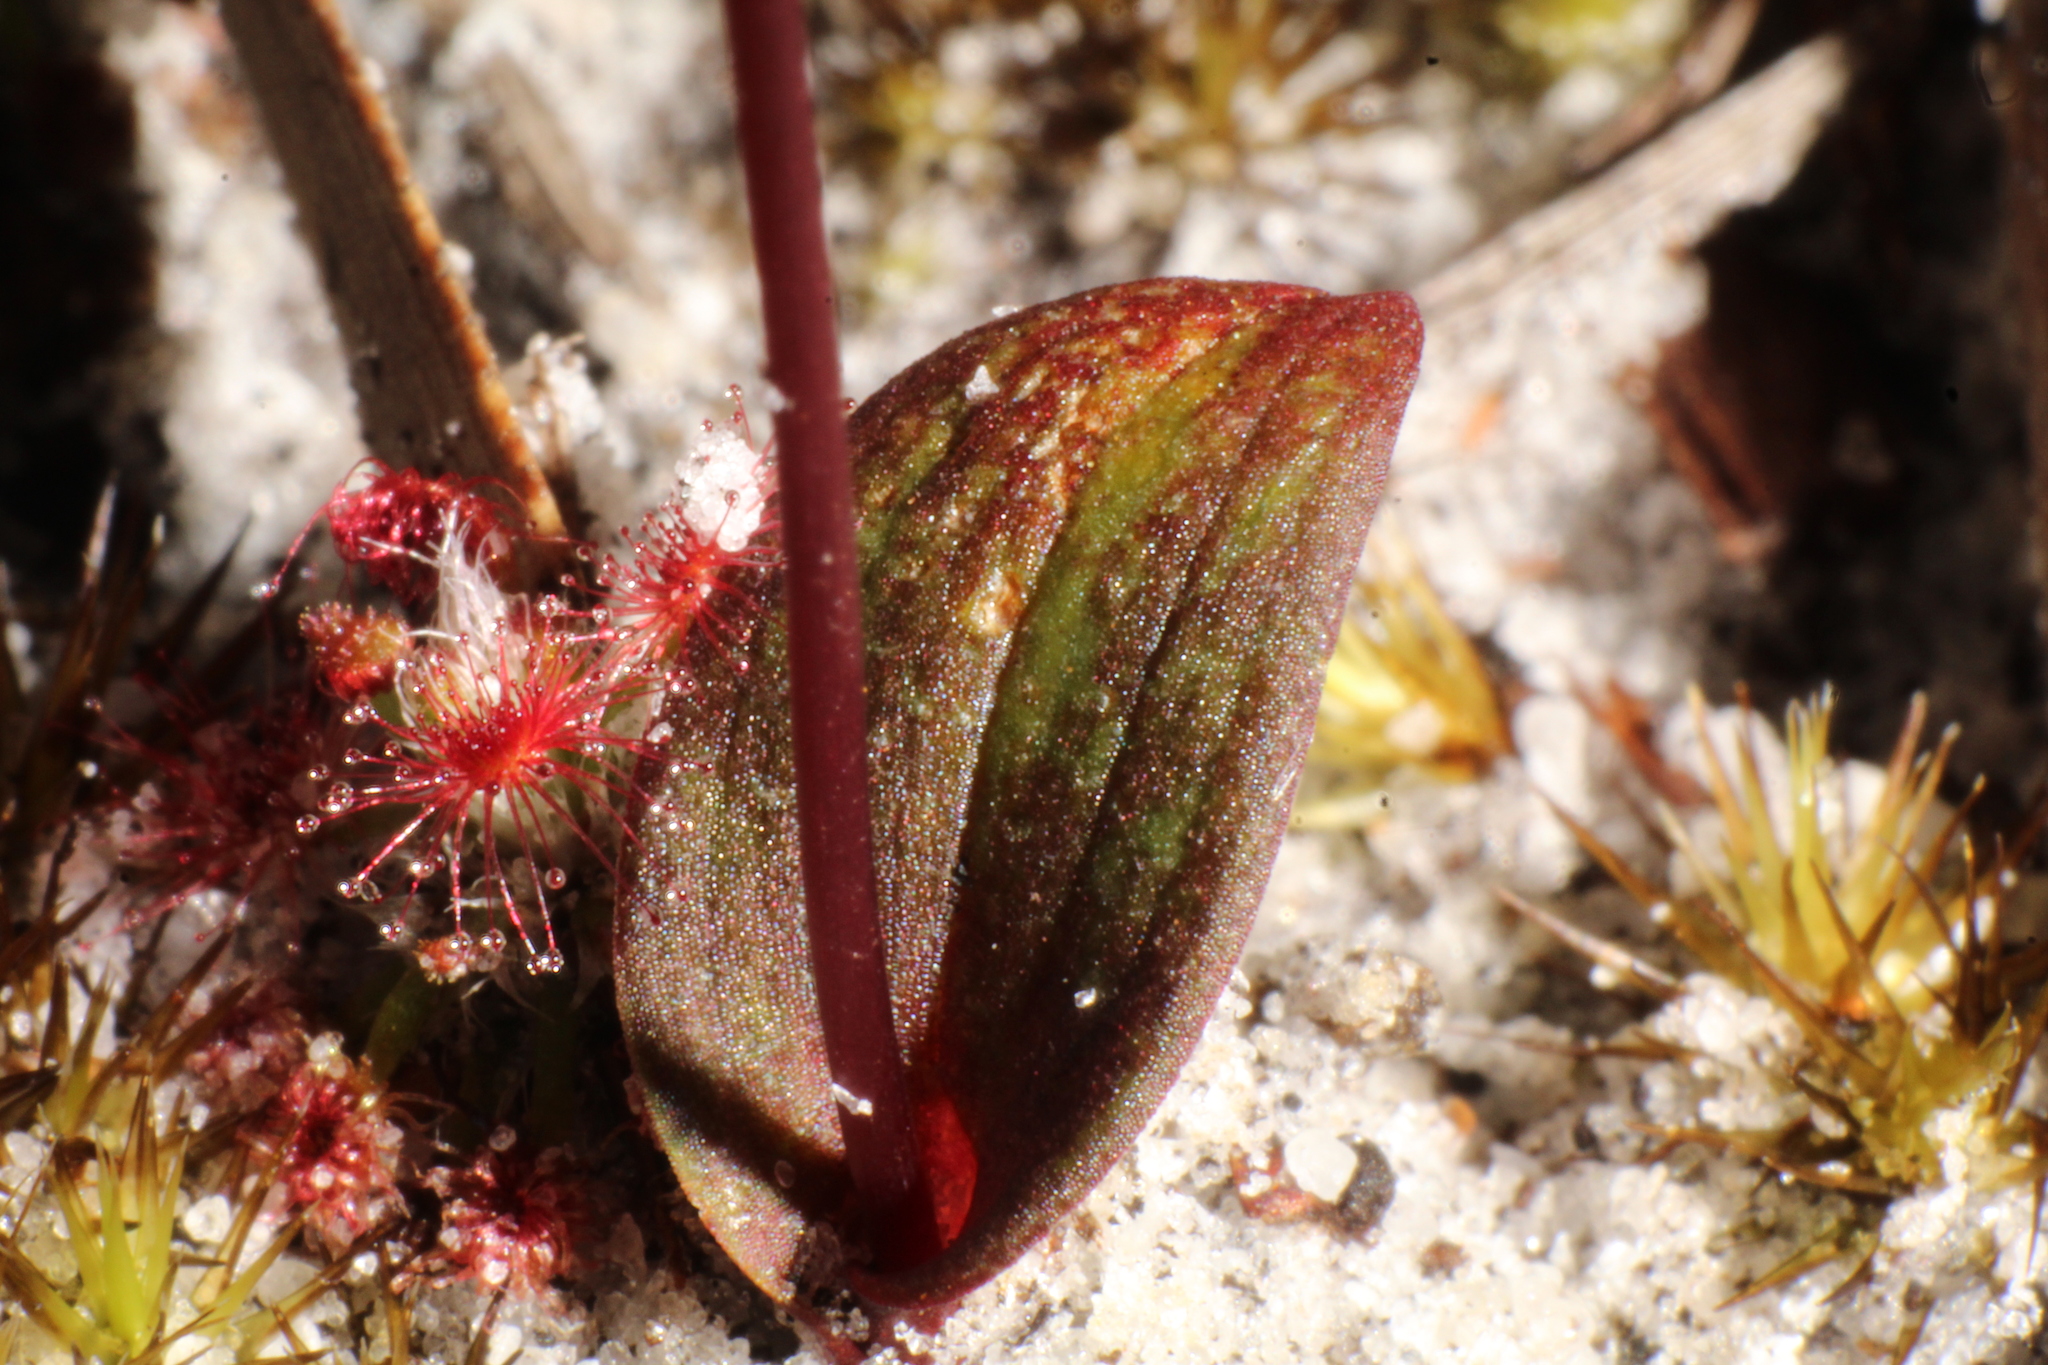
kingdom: Plantae
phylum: Tracheophyta
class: Liliopsida
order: Asparagales
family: Orchidaceae
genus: Caleana
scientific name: Caleana nigrita
